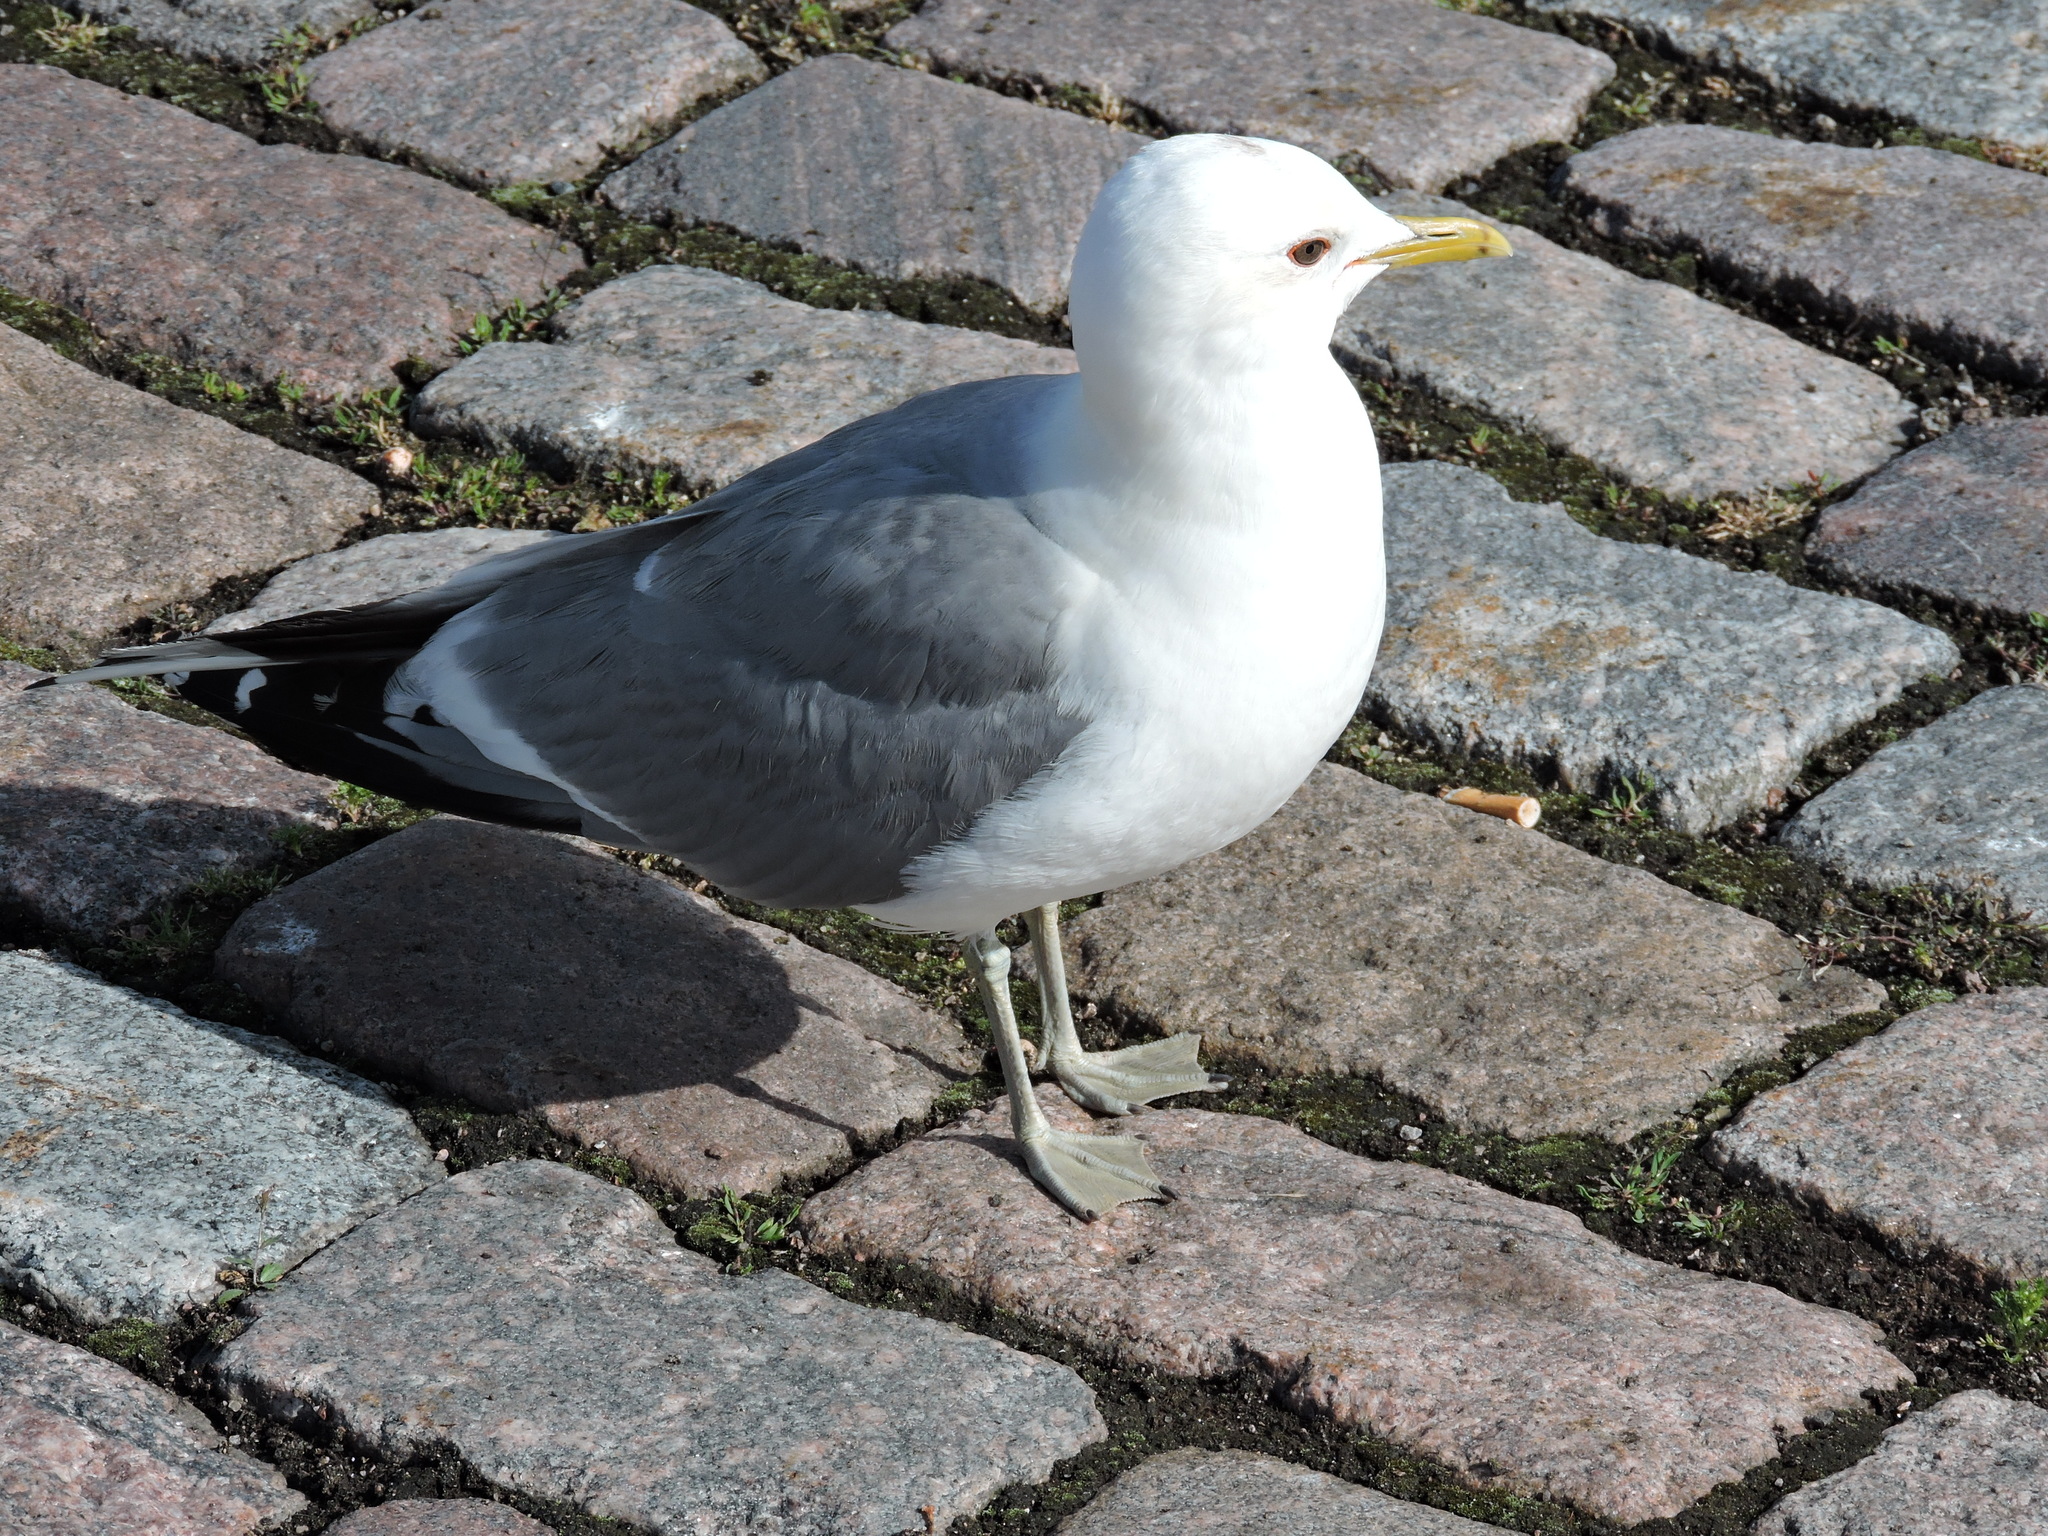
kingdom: Animalia
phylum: Chordata
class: Aves
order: Charadriiformes
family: Laridae
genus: Larus
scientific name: Larus canus
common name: Mew gull
